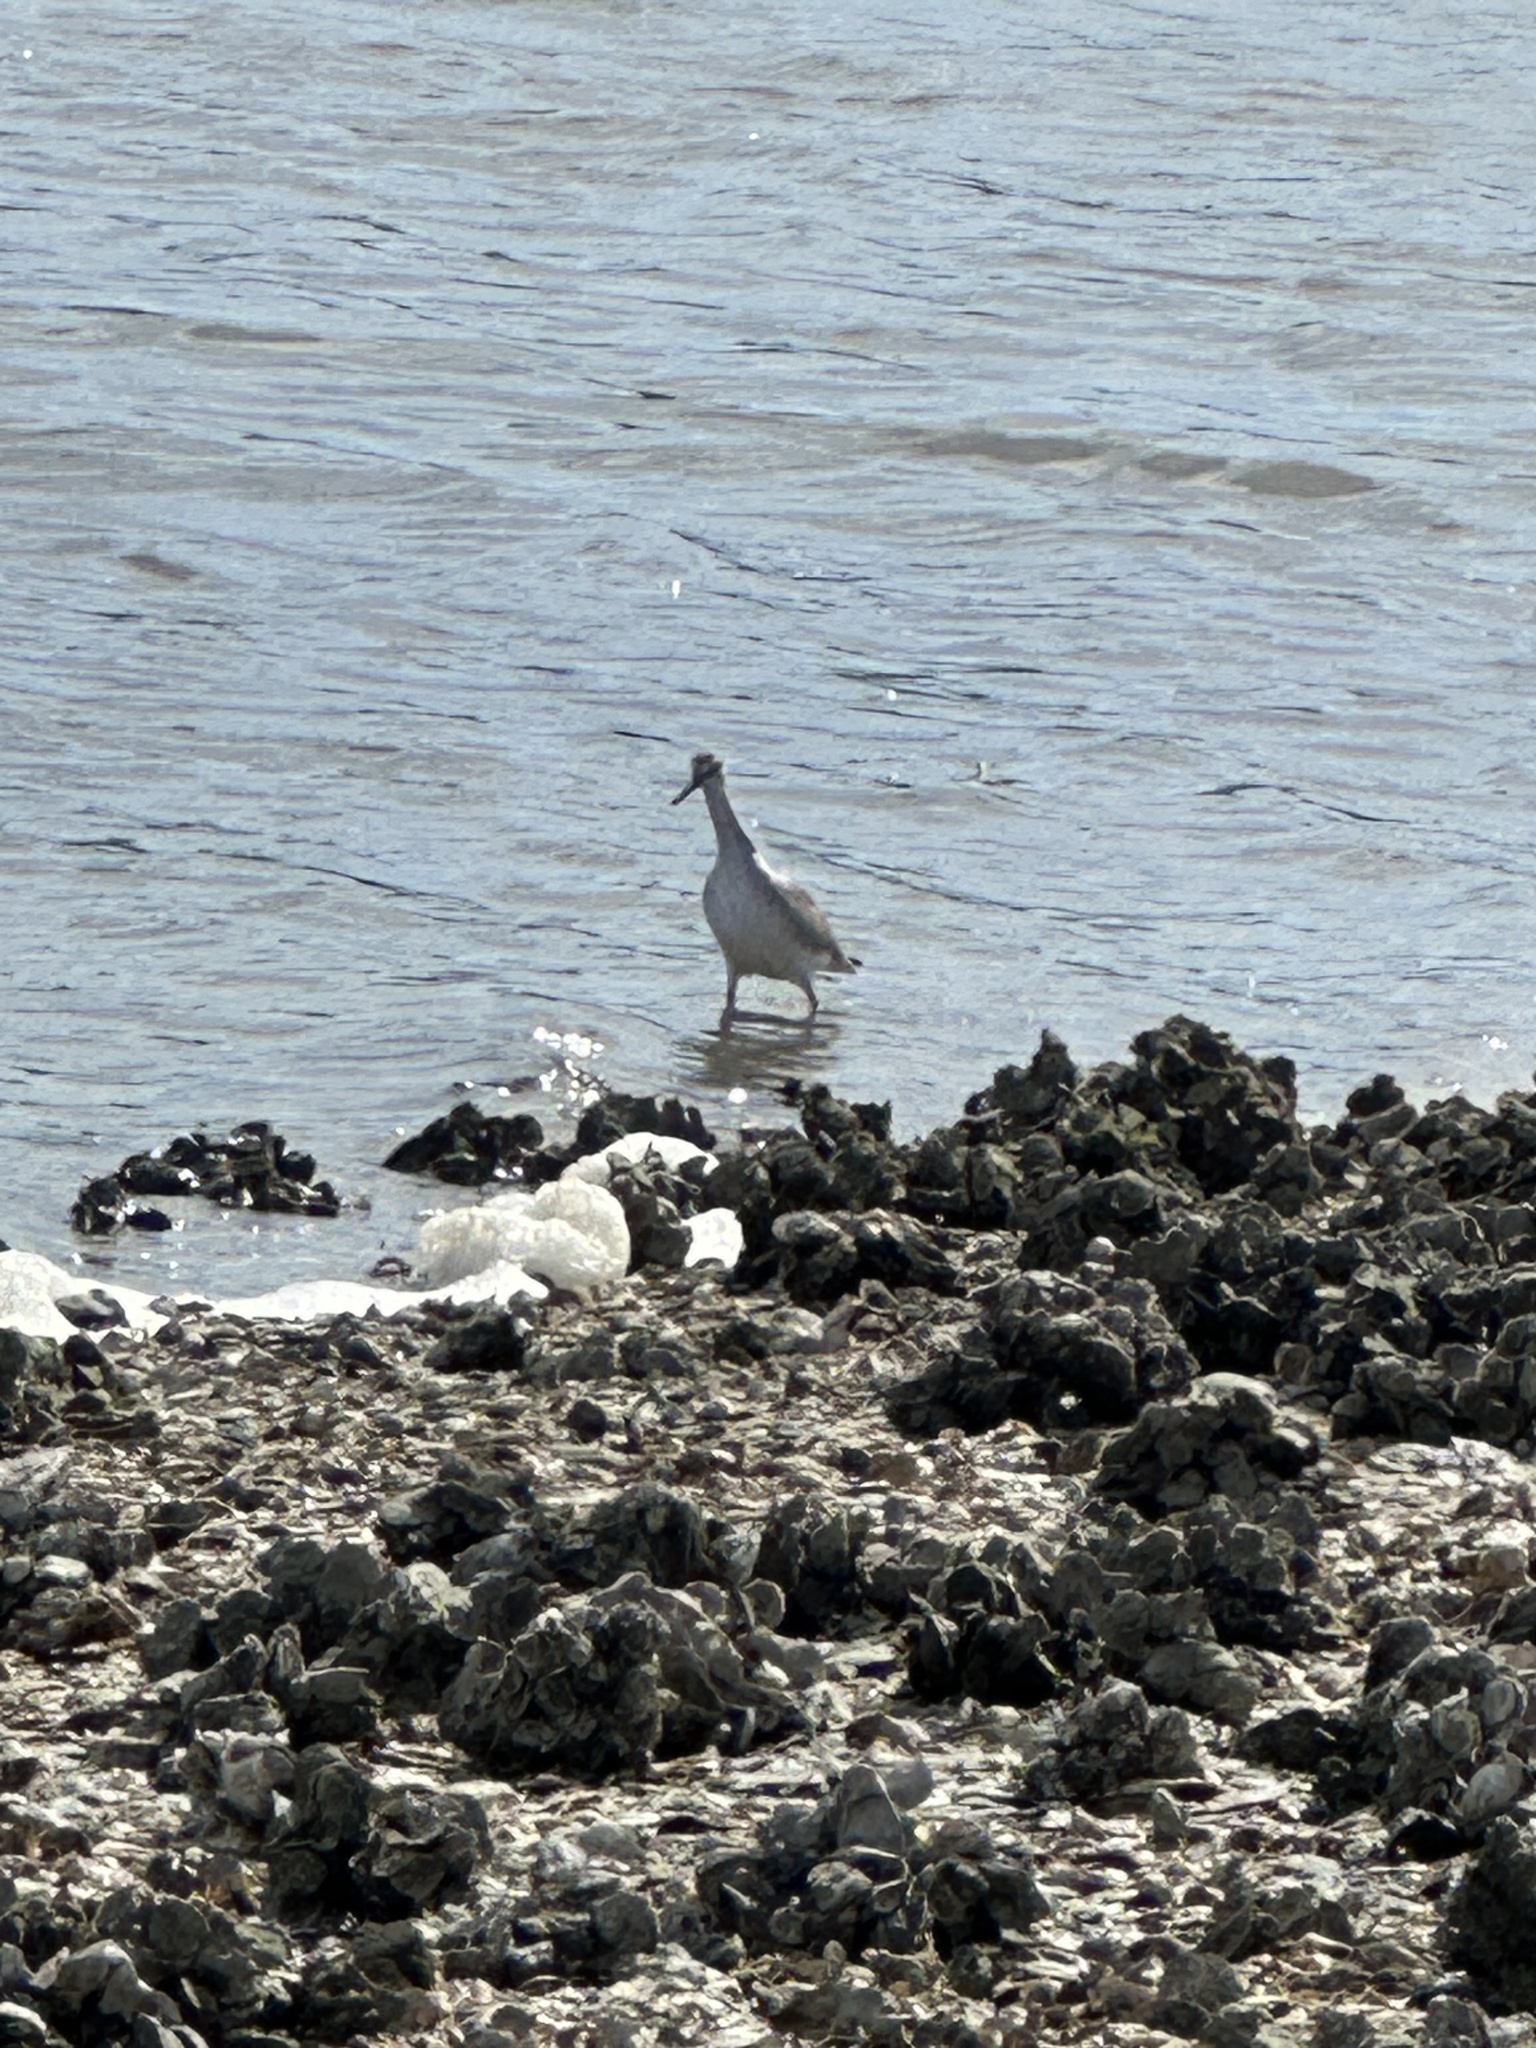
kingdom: Animalia
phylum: Chordata
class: Aves
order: Charadriiformes
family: Scolopacidae
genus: Tringa
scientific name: Tringa semipalmata
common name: Willet
